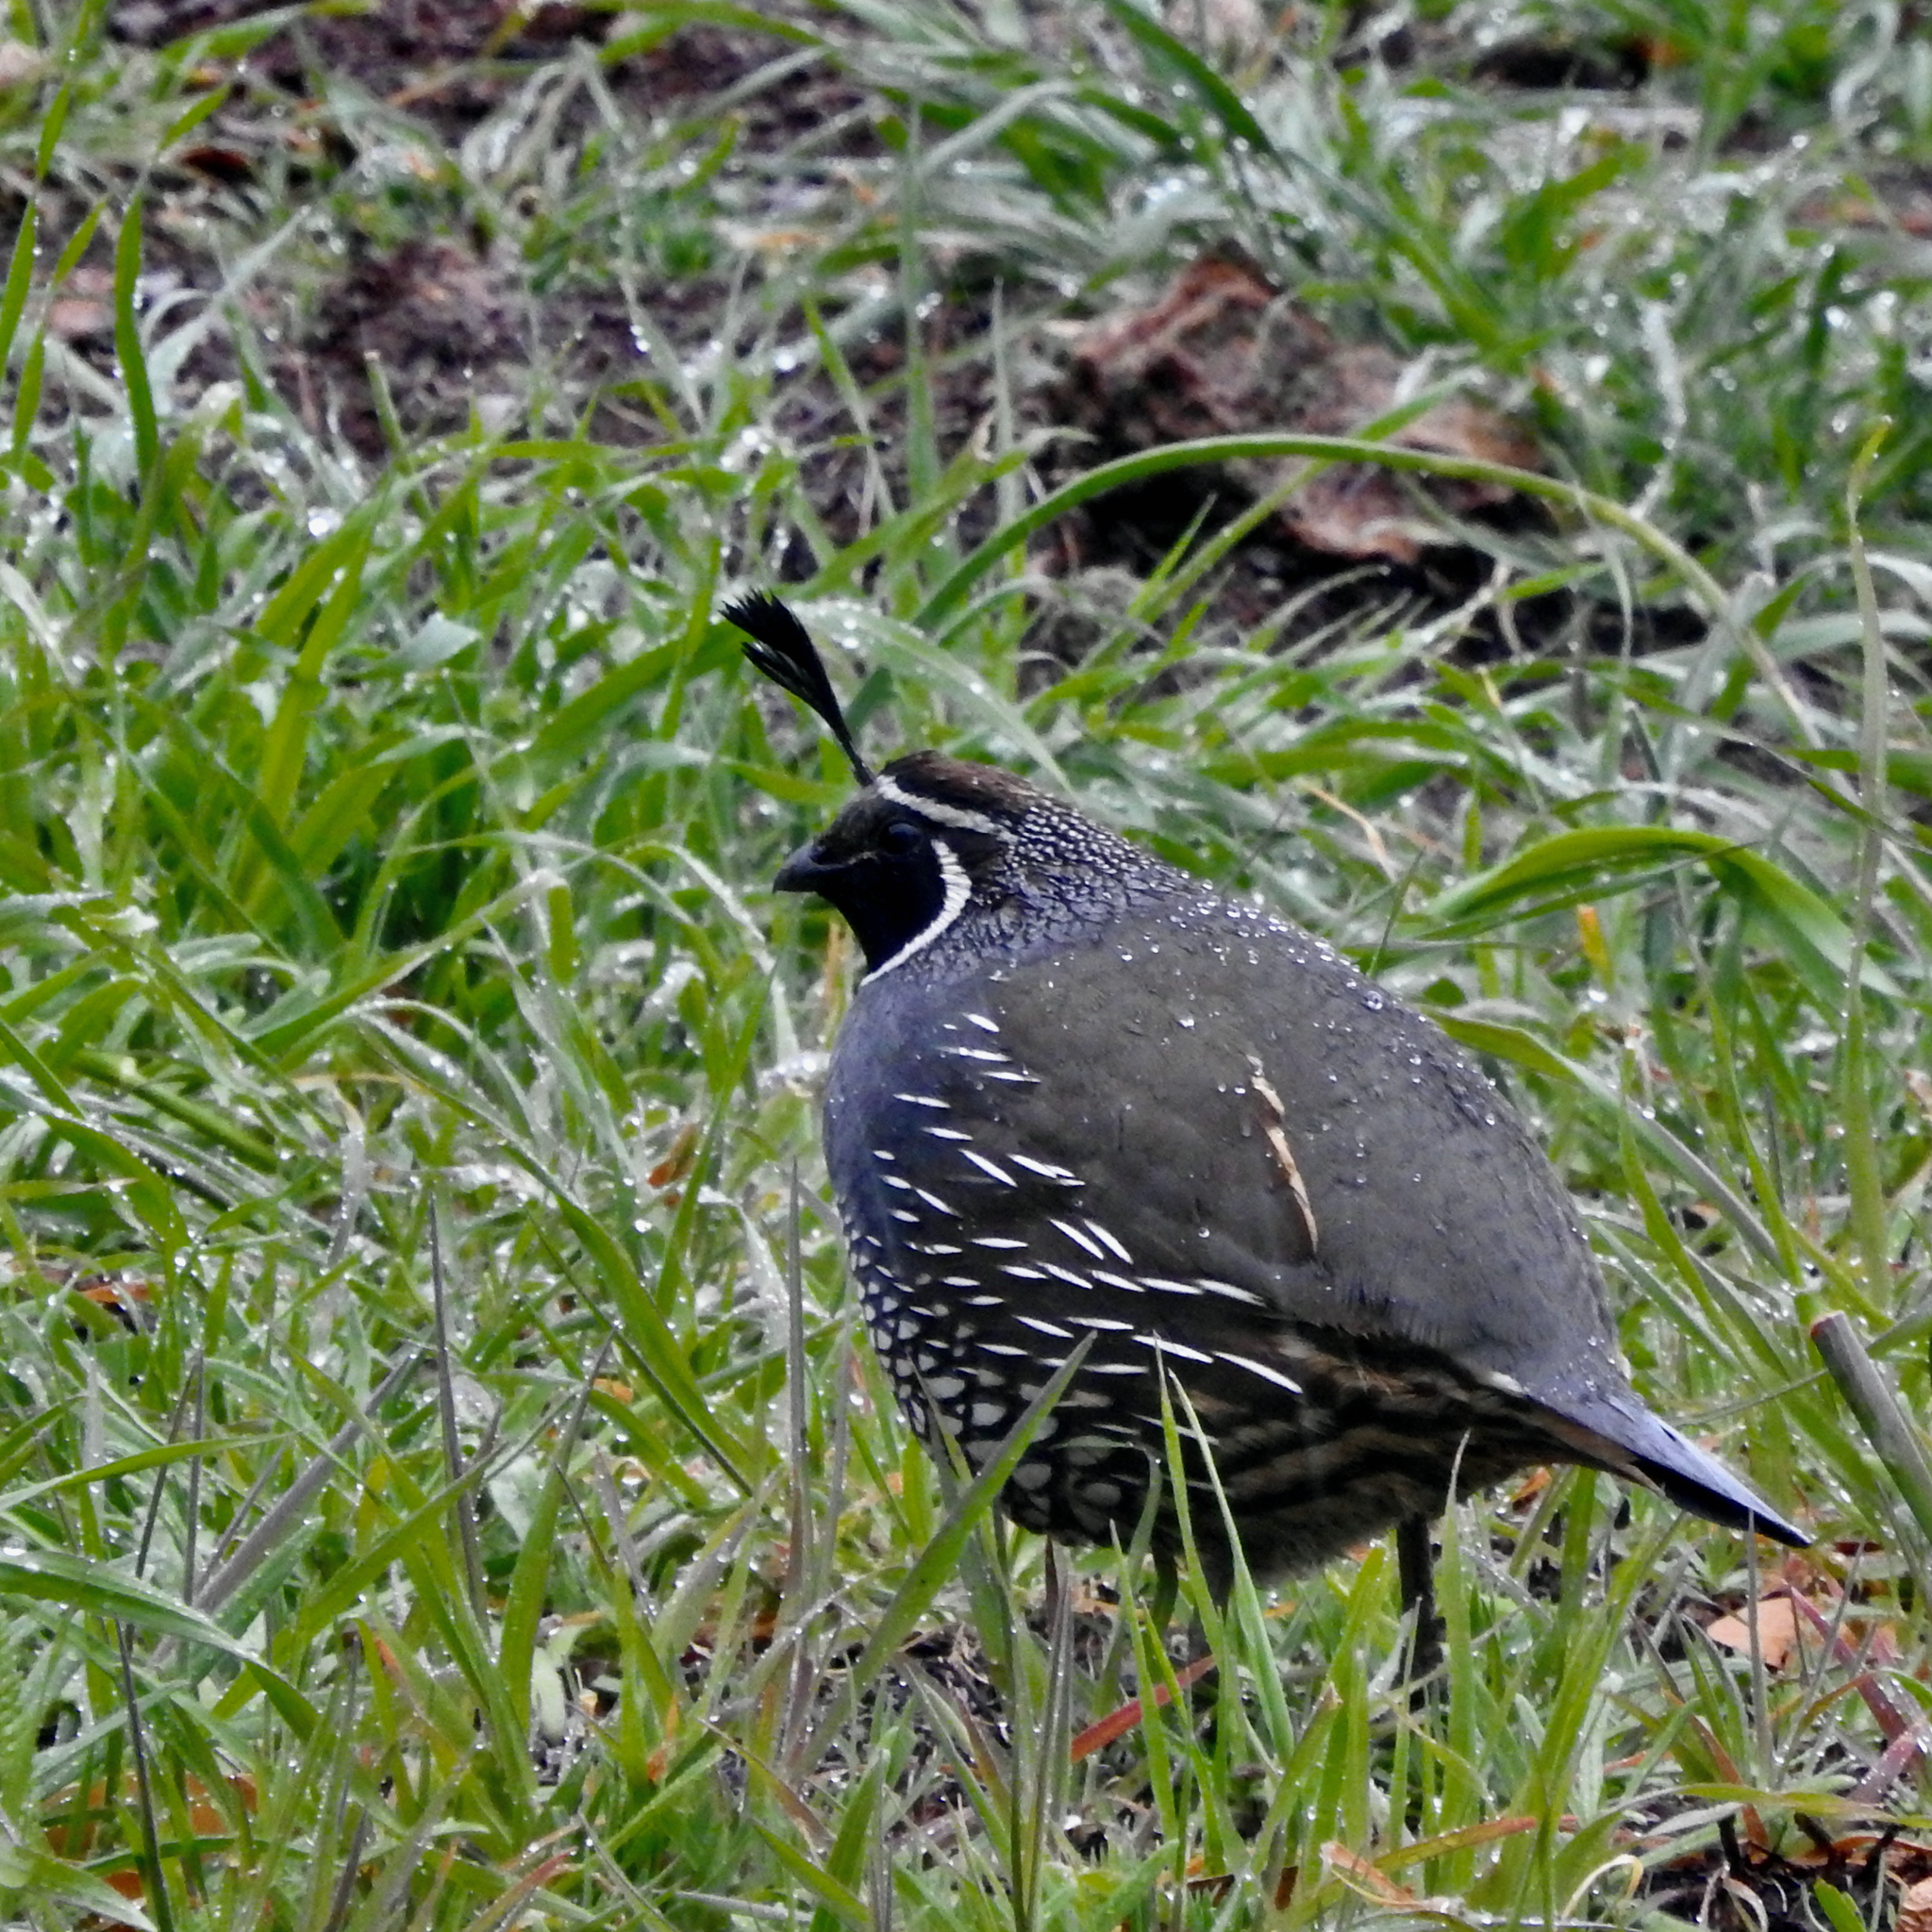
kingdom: Animalia
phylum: Chordata
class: Aves
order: Galliformes
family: Odontophoridae
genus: Callipepla
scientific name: Callipepla californica
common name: California quail
